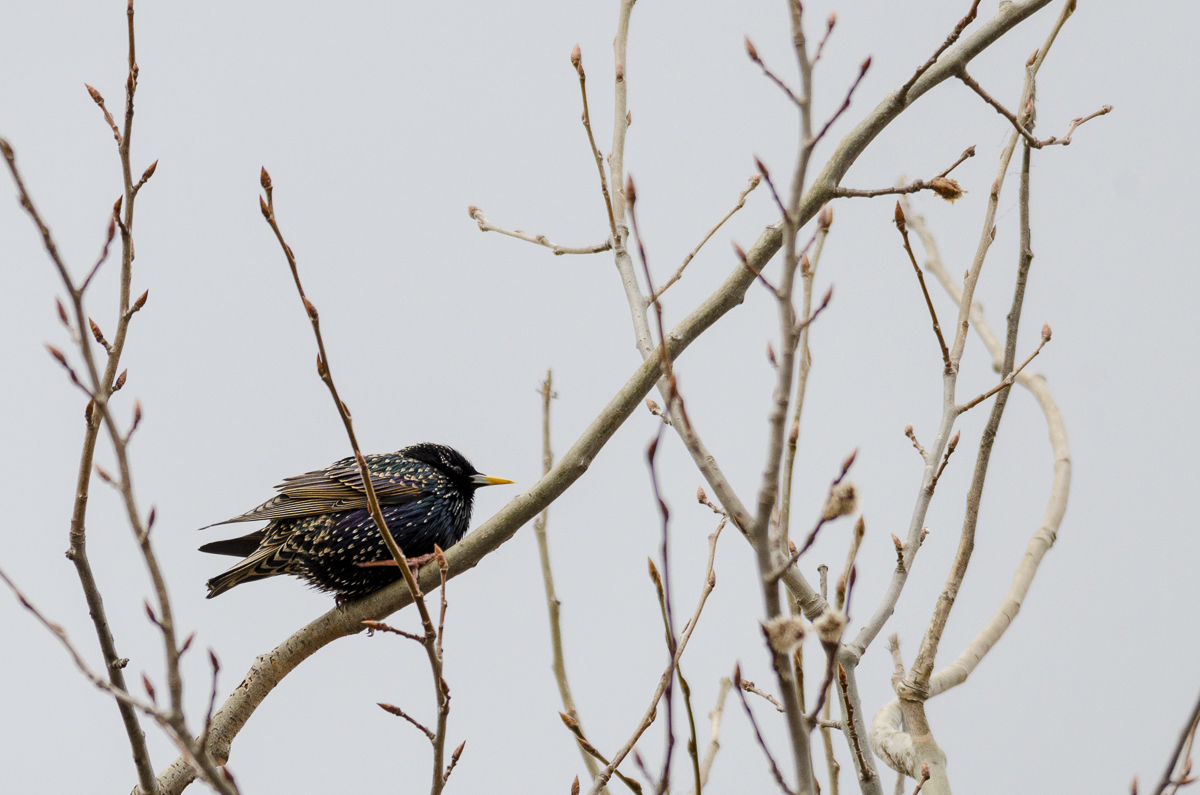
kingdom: Animalia
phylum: Chordata
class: Aves
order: Passeriformes
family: Sturnidae
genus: Sturnus
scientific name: Sturnus vulgaris
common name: Common starling
